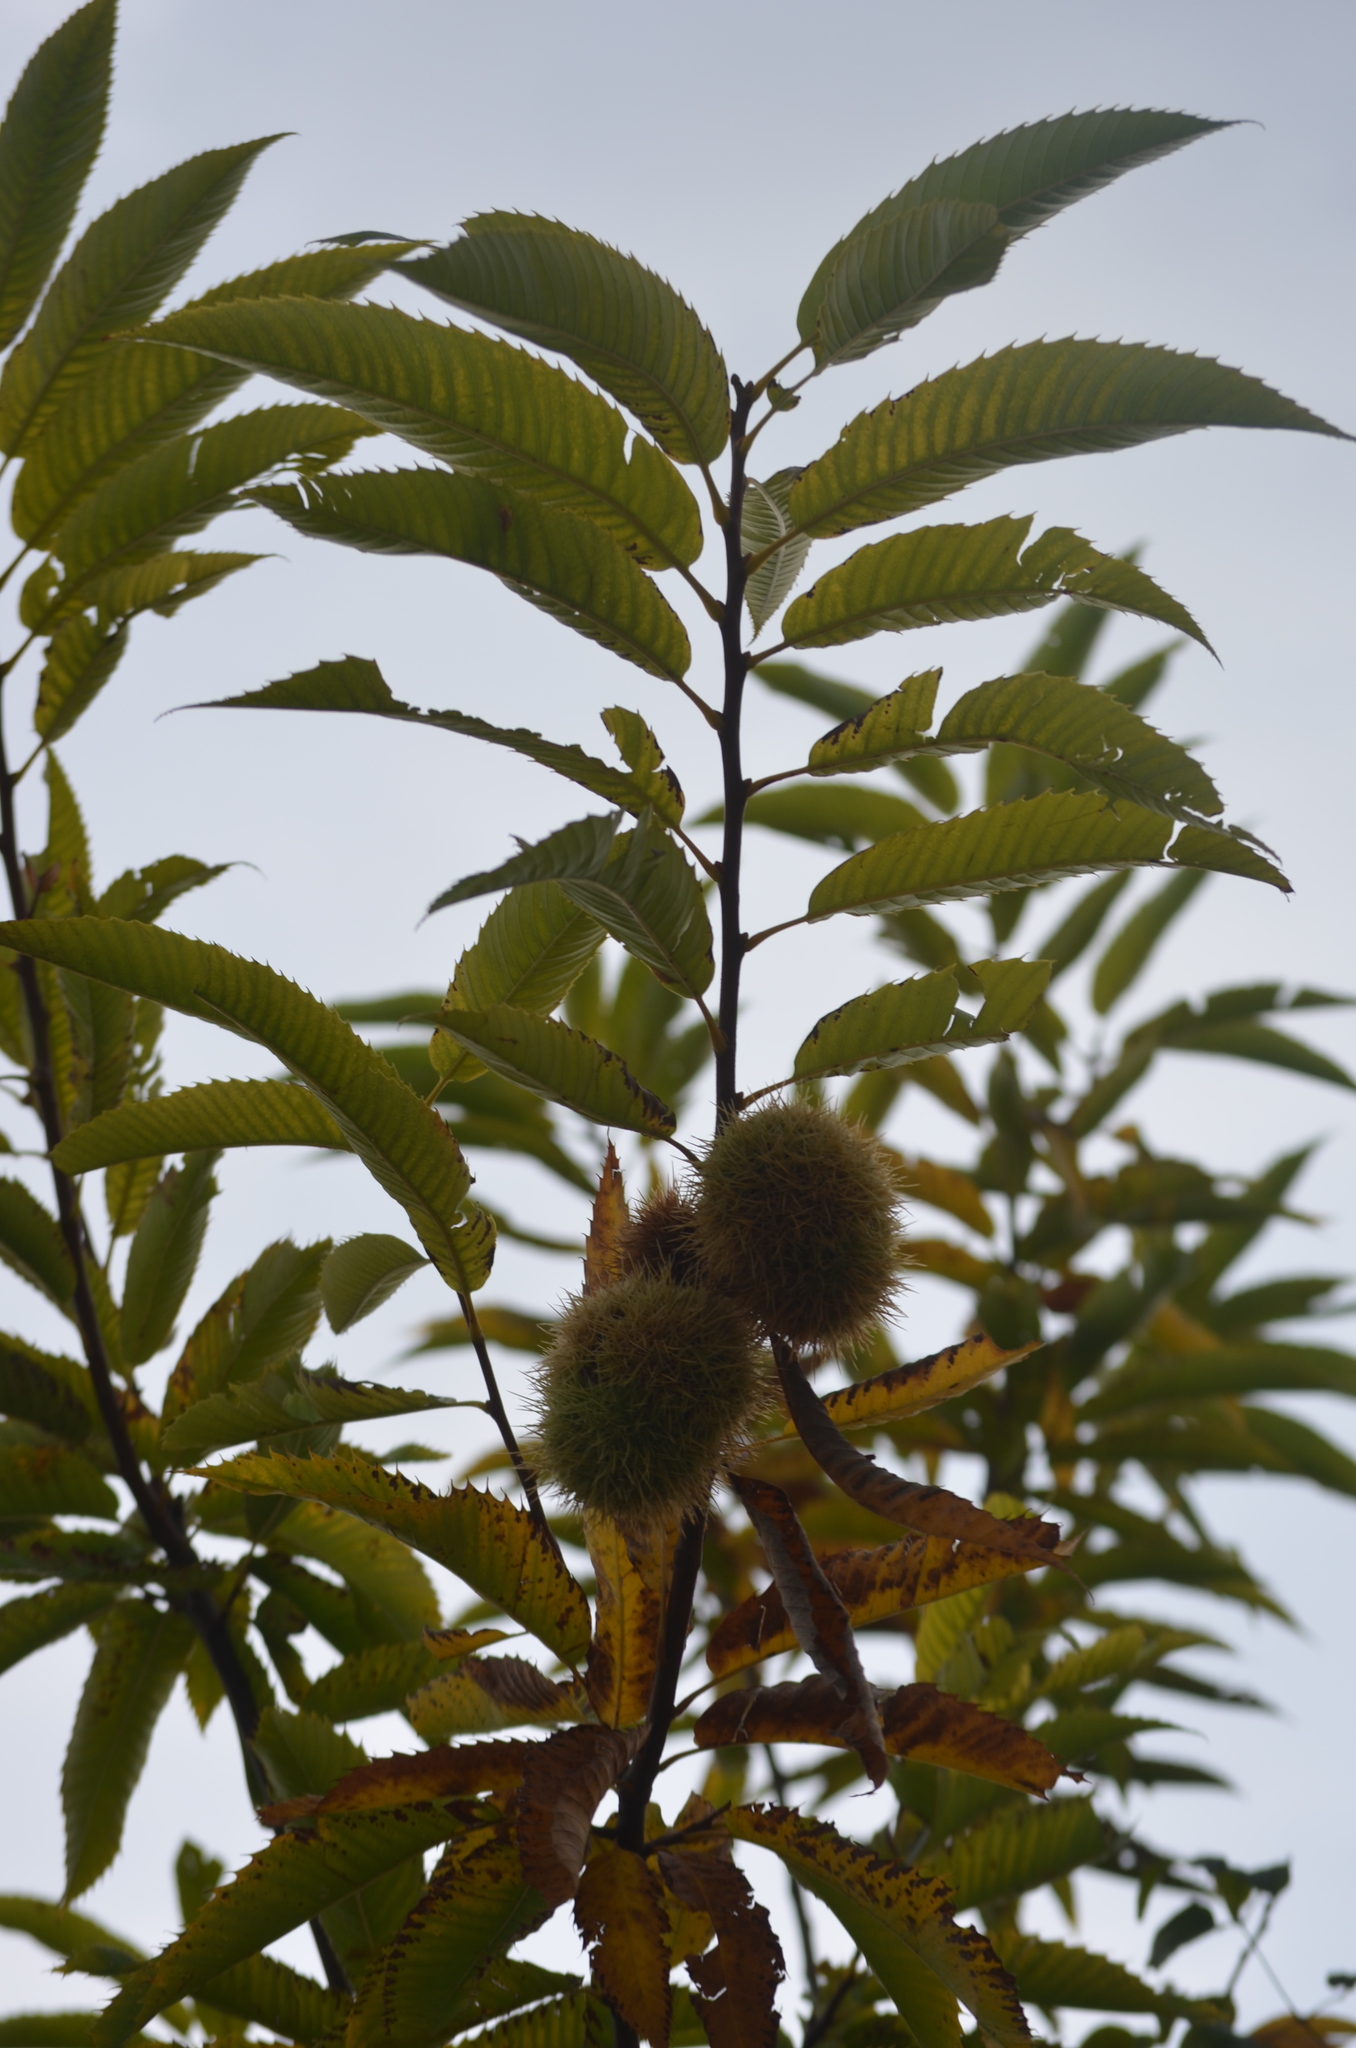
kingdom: Plantae
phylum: Tracheophyta
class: Magnoliopsida
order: Fagales
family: Fagaceae
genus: Castanea
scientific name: Castanea sativa
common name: Sweet chestnut
